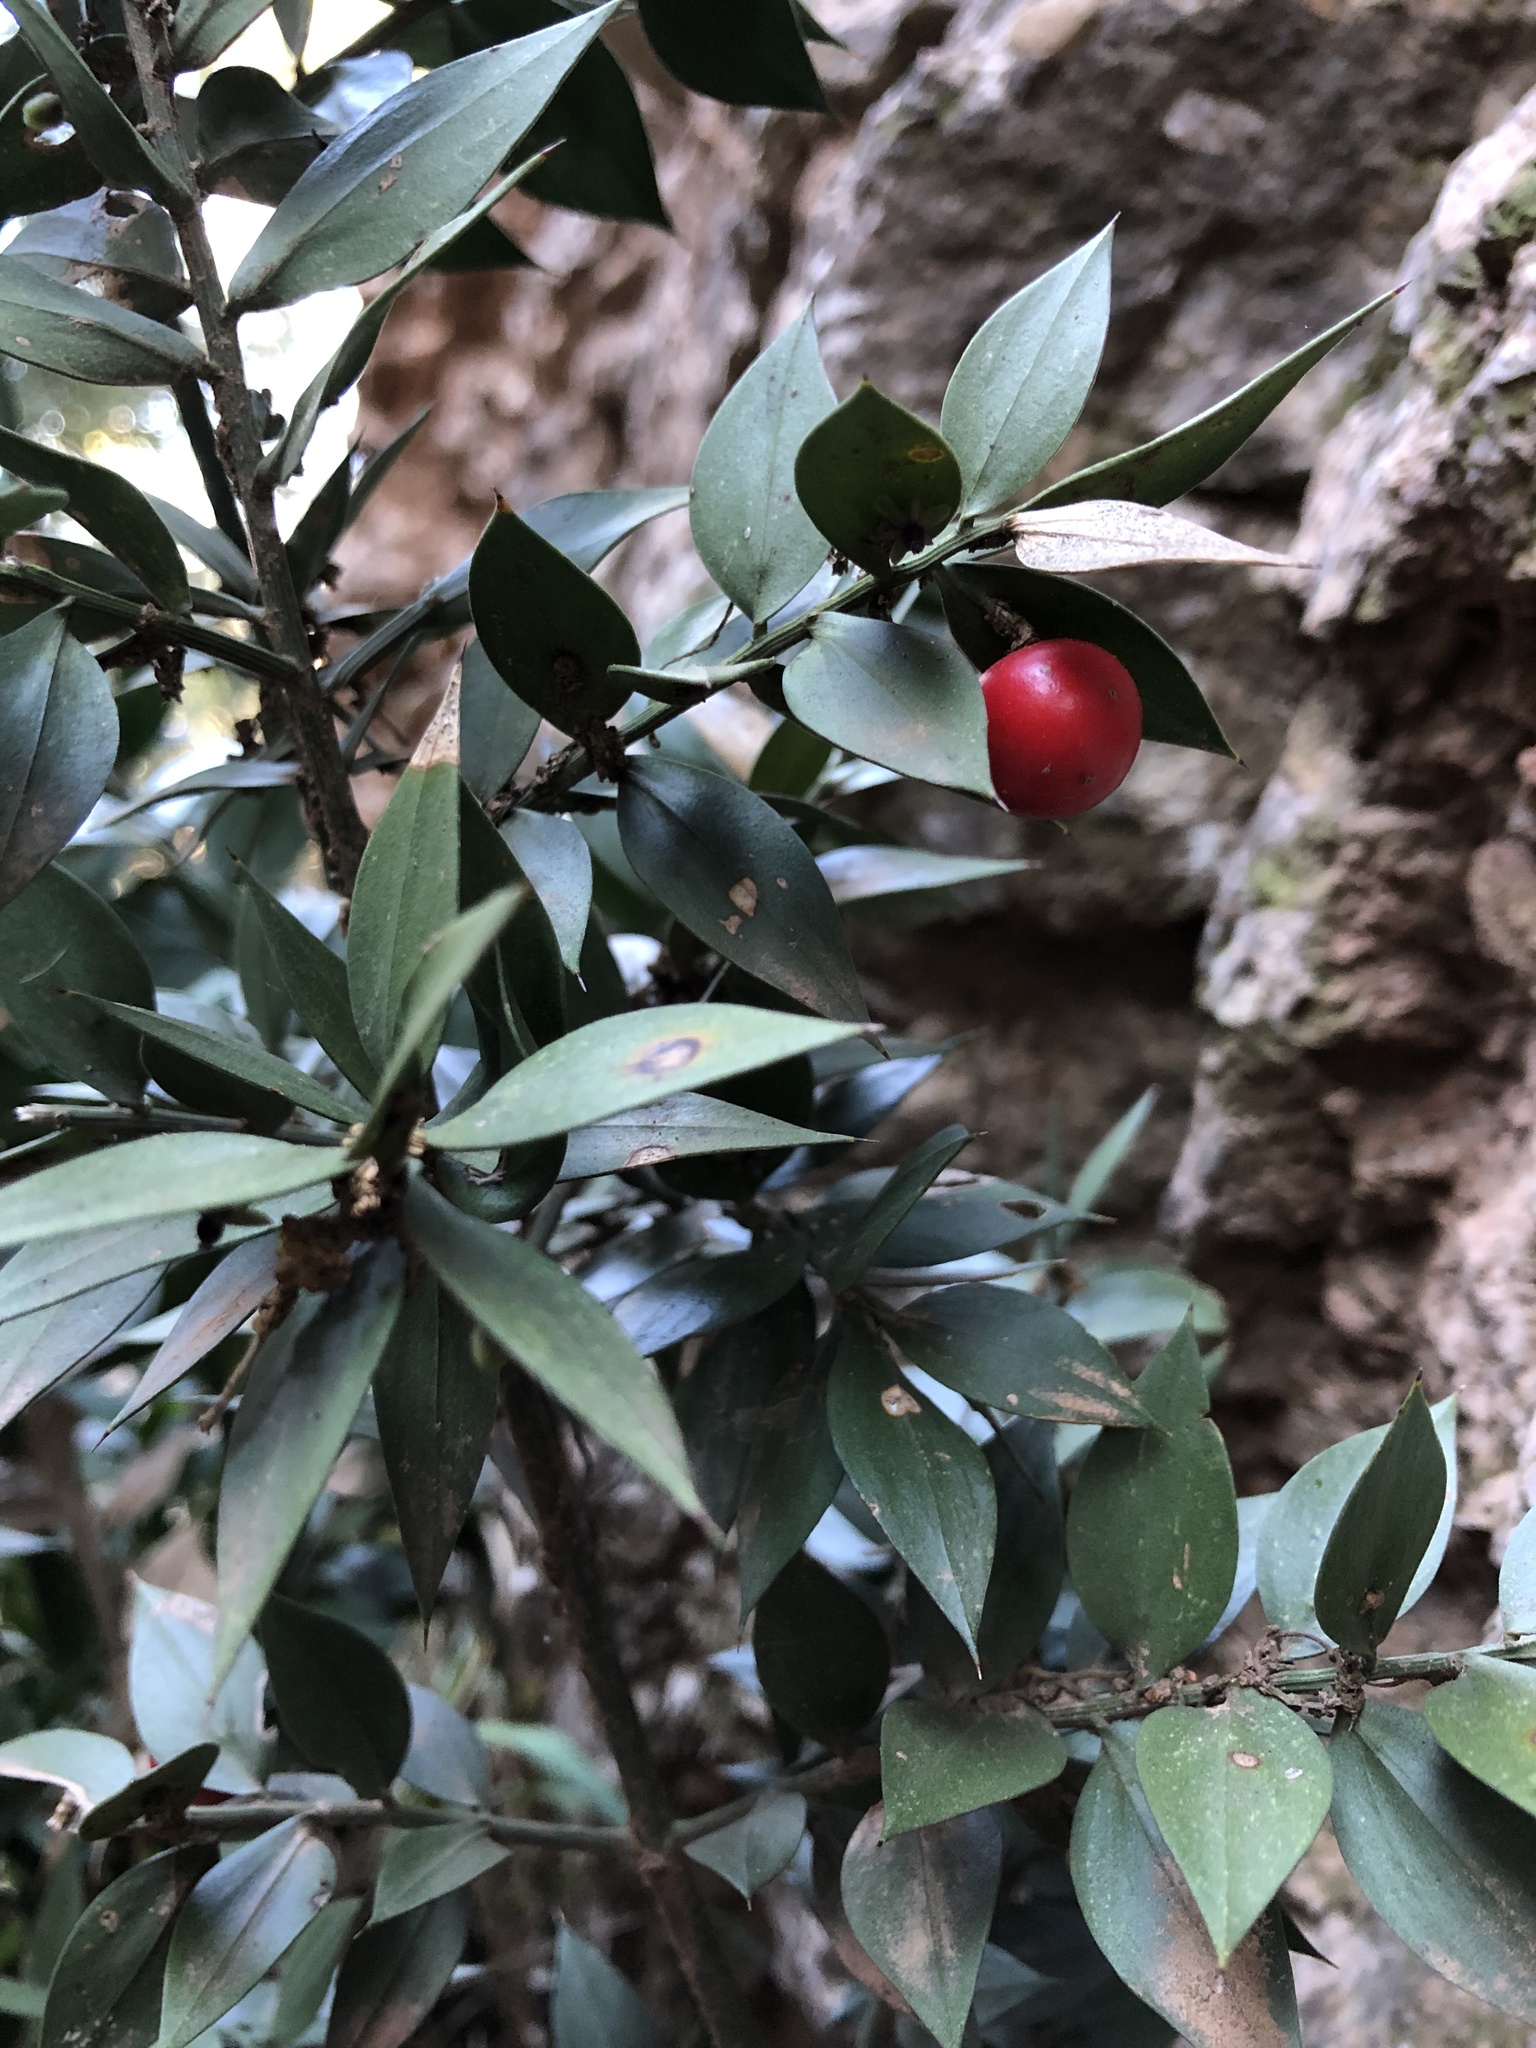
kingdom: Plantae
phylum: Tracheophyta
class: Liliopsida
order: Asparagales
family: Asparagaceae
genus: Ruscus
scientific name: Ruscus aculeatus
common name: Butcher's-broom
